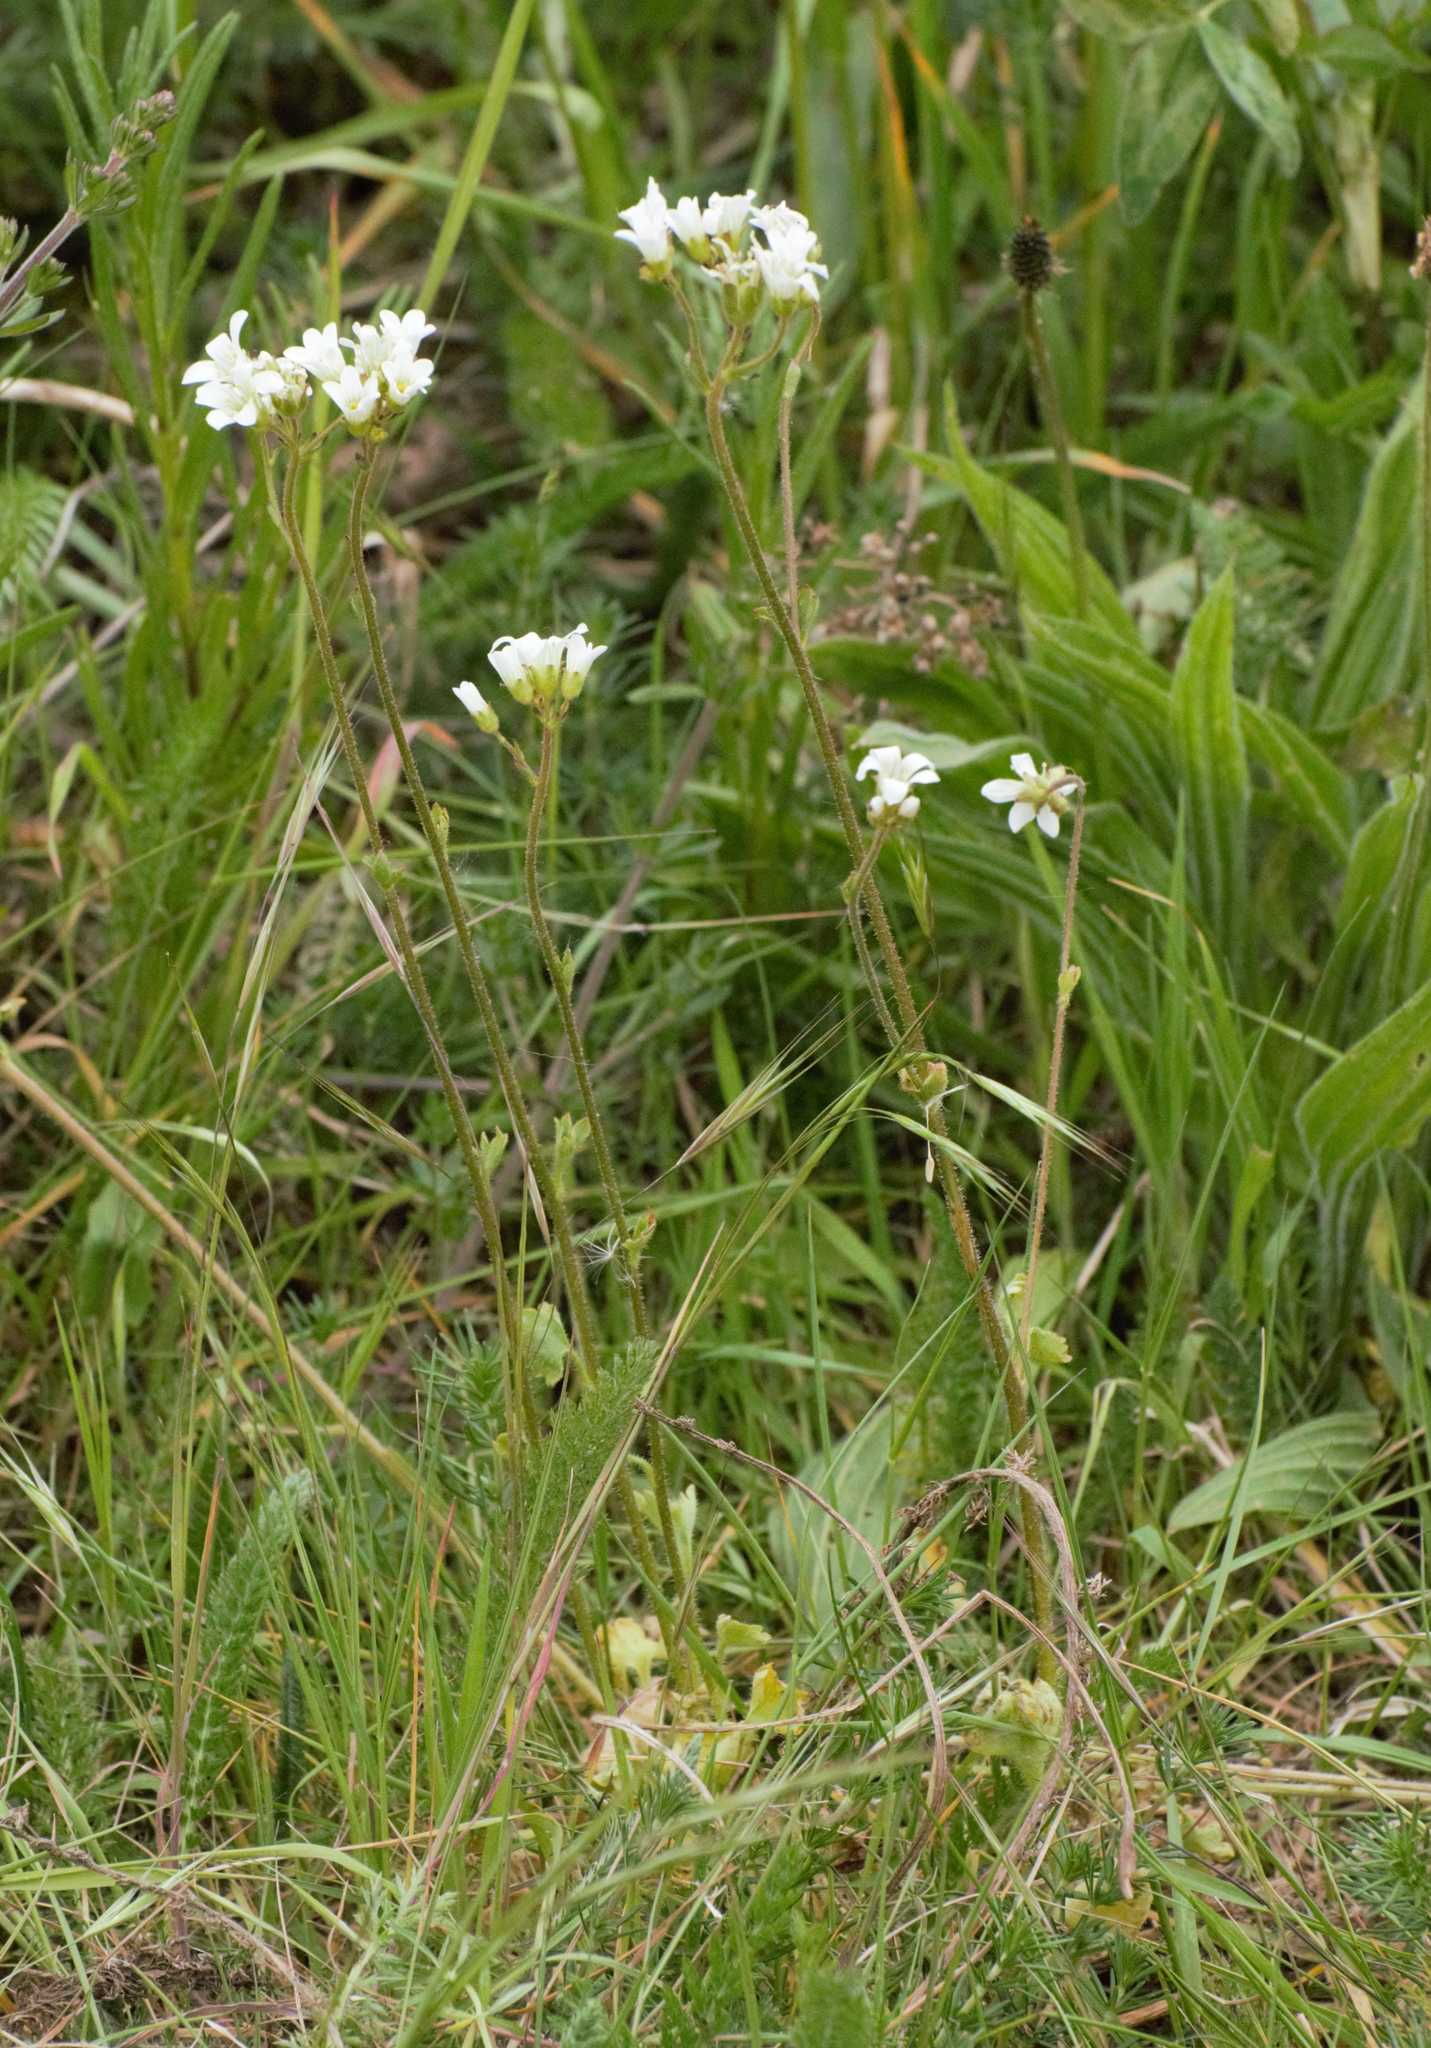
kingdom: Plantae
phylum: Tracheophyta
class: Magnoliopsida
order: Saxifragales
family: Saxifragaceae
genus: Saxifraga
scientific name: Saxifraga granulata
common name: Meadow saxifrage
